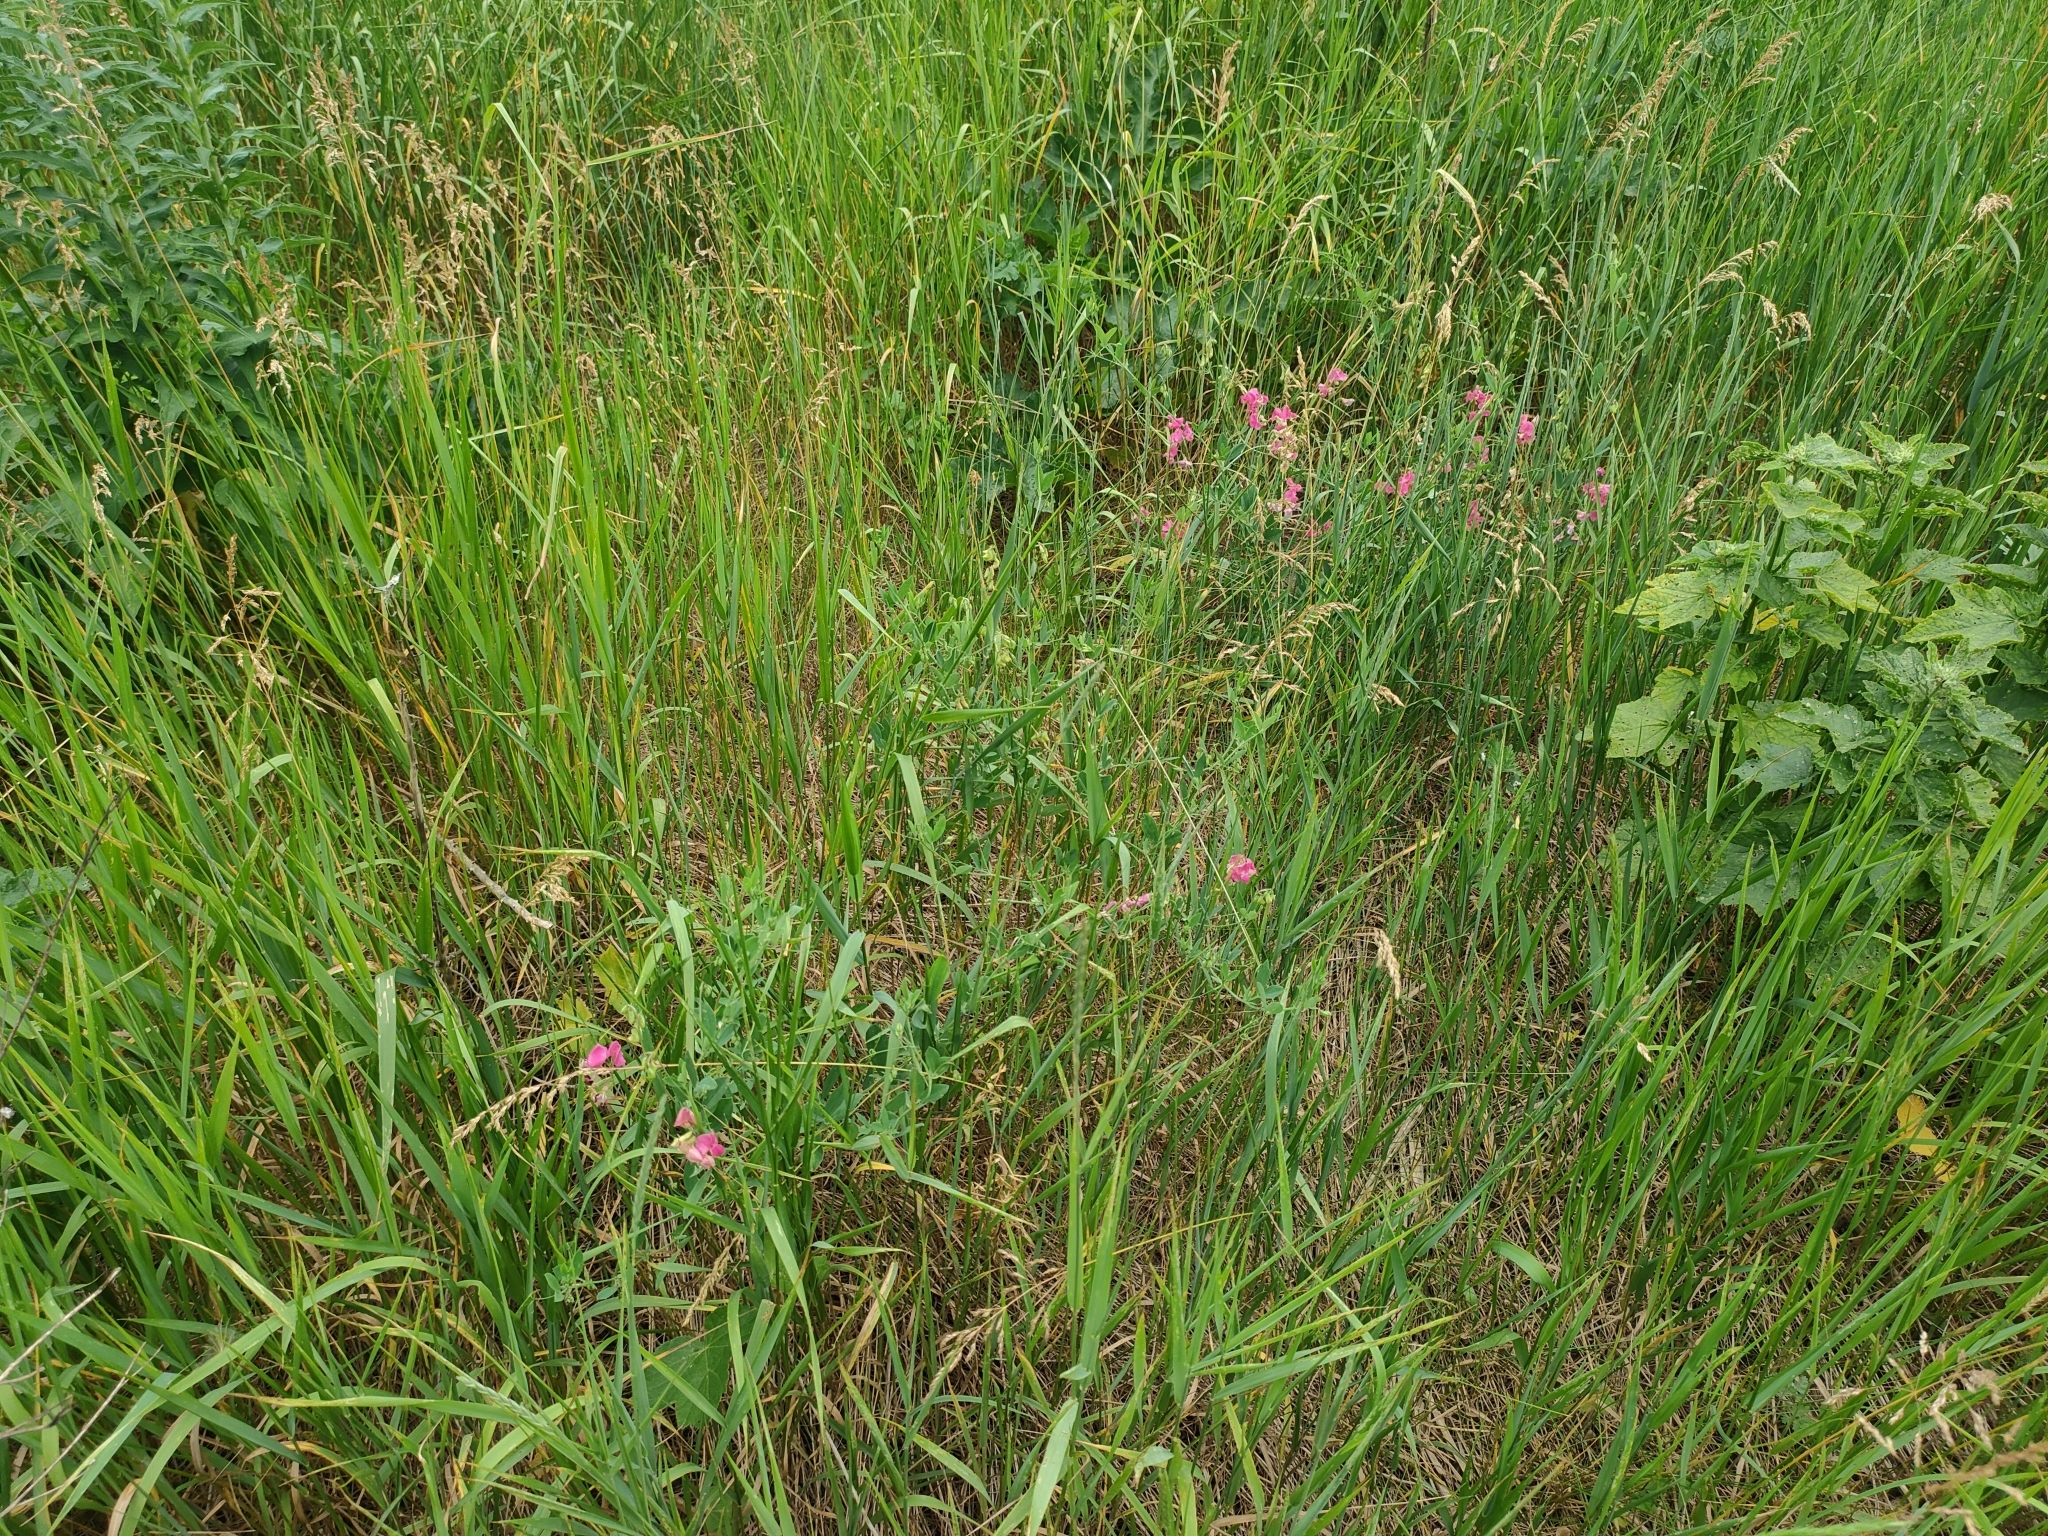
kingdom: Plantae
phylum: Tracheophyta
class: Magnoliopsida
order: Fabales
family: Fabaceae
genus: Lathyrus
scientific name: Lathyrus tuberosus
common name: Tuberous pea
